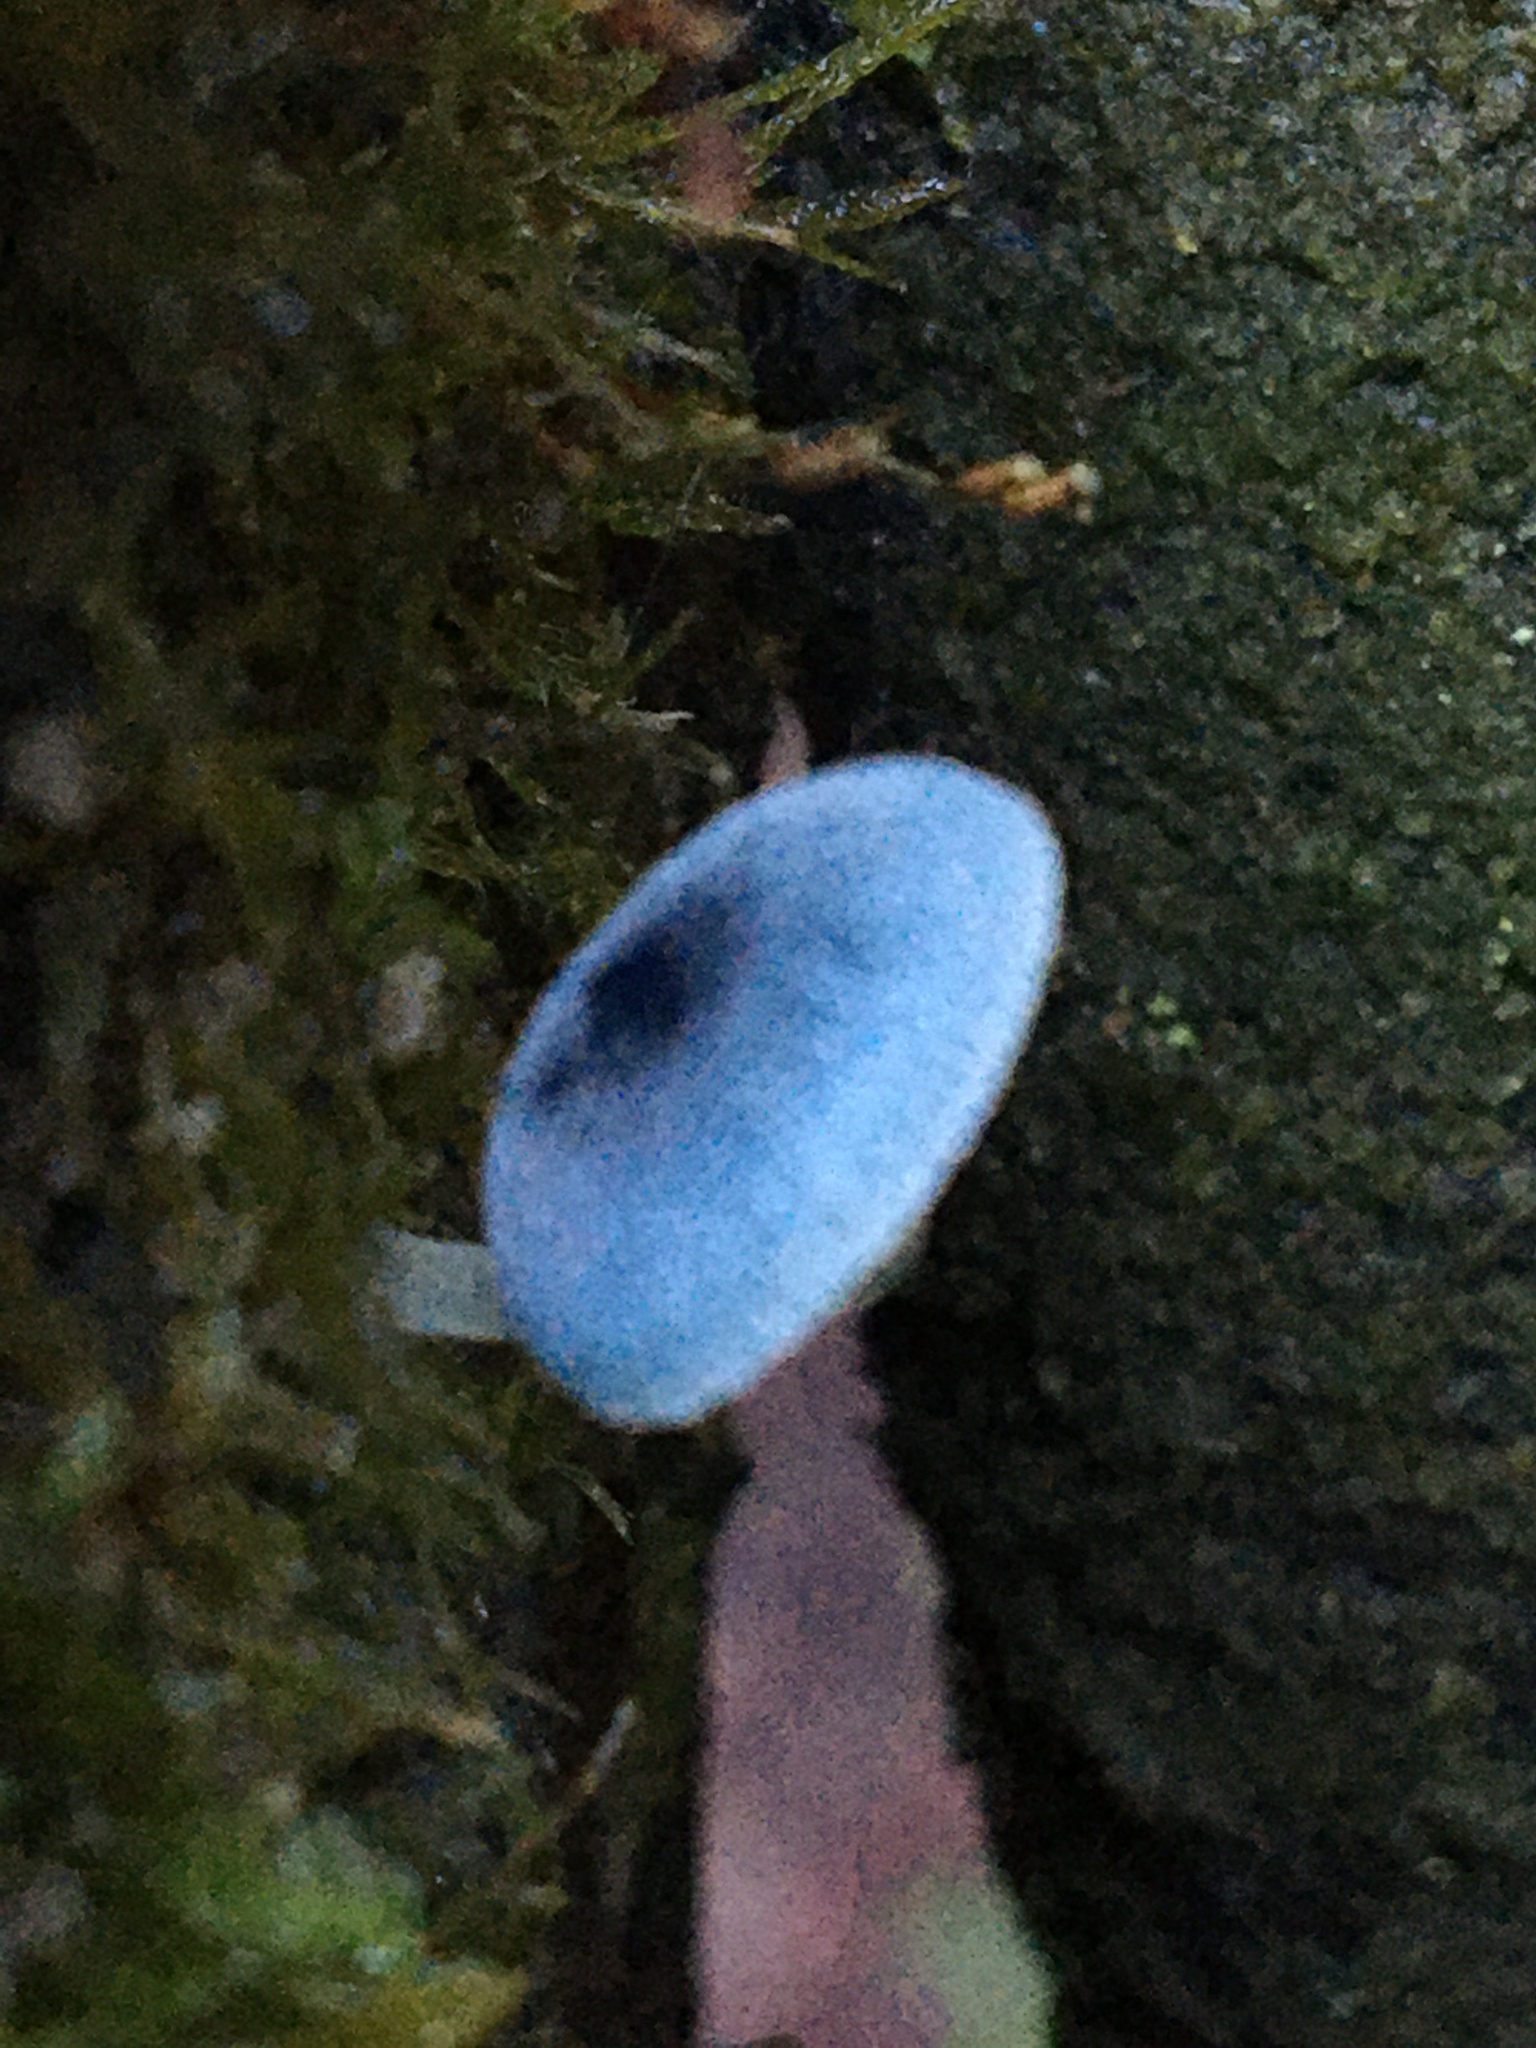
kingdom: Fungi
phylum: Basidiomycota
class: Agaricomycetes
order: Agaricales
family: Mycenaceae
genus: Mycena
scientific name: Mycena interrupta
